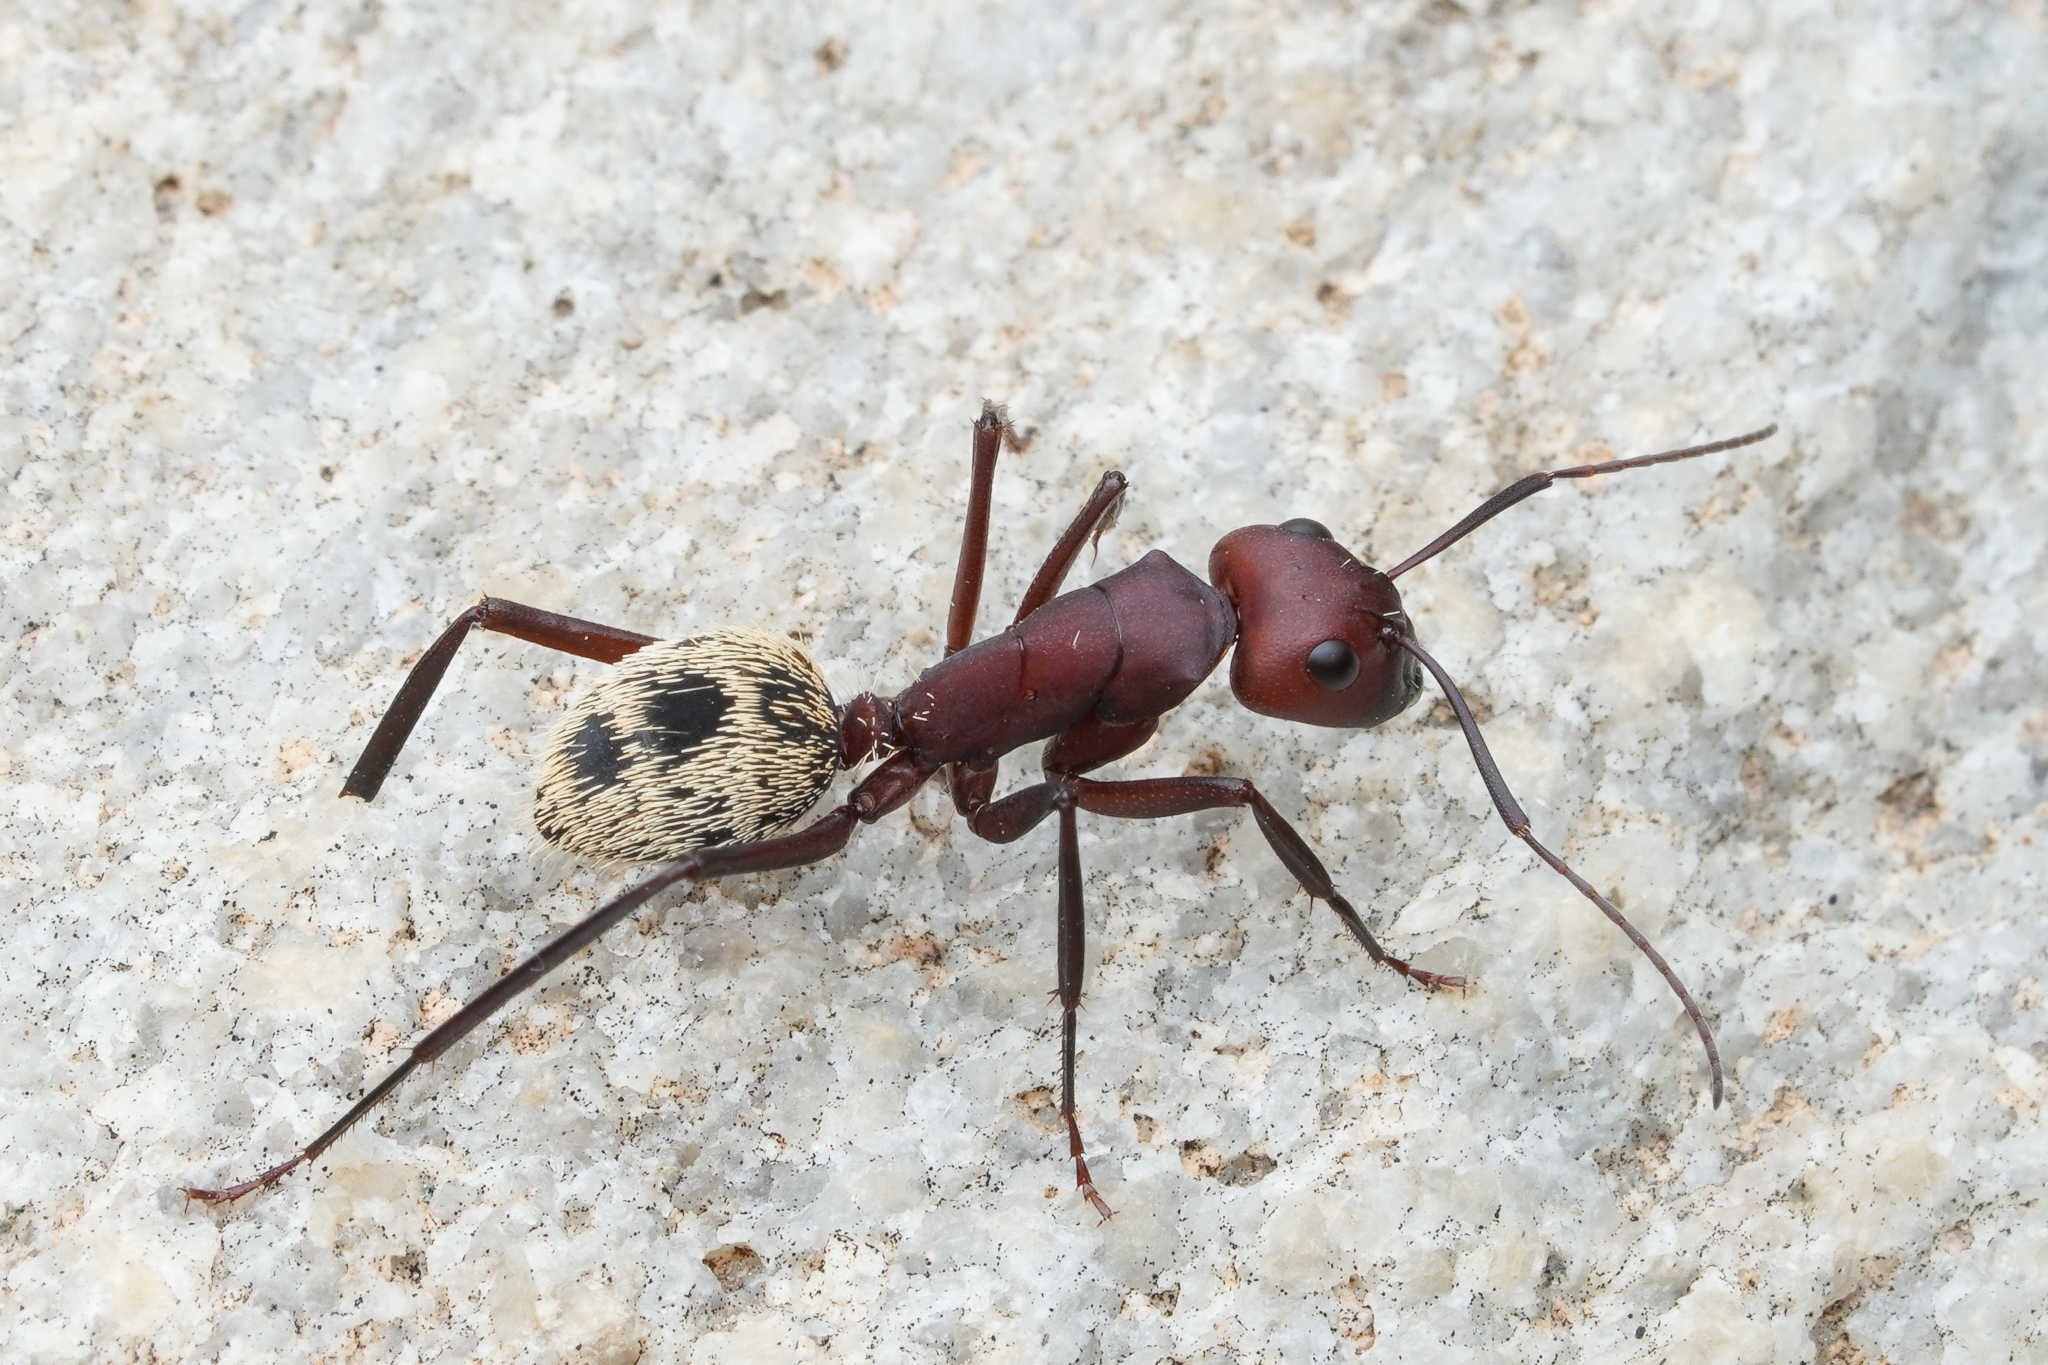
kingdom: Animalia
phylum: Arthropoda
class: Insecta
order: Hymenoptera
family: Formicidae
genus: Camponotus
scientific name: Camponotus storeatus
